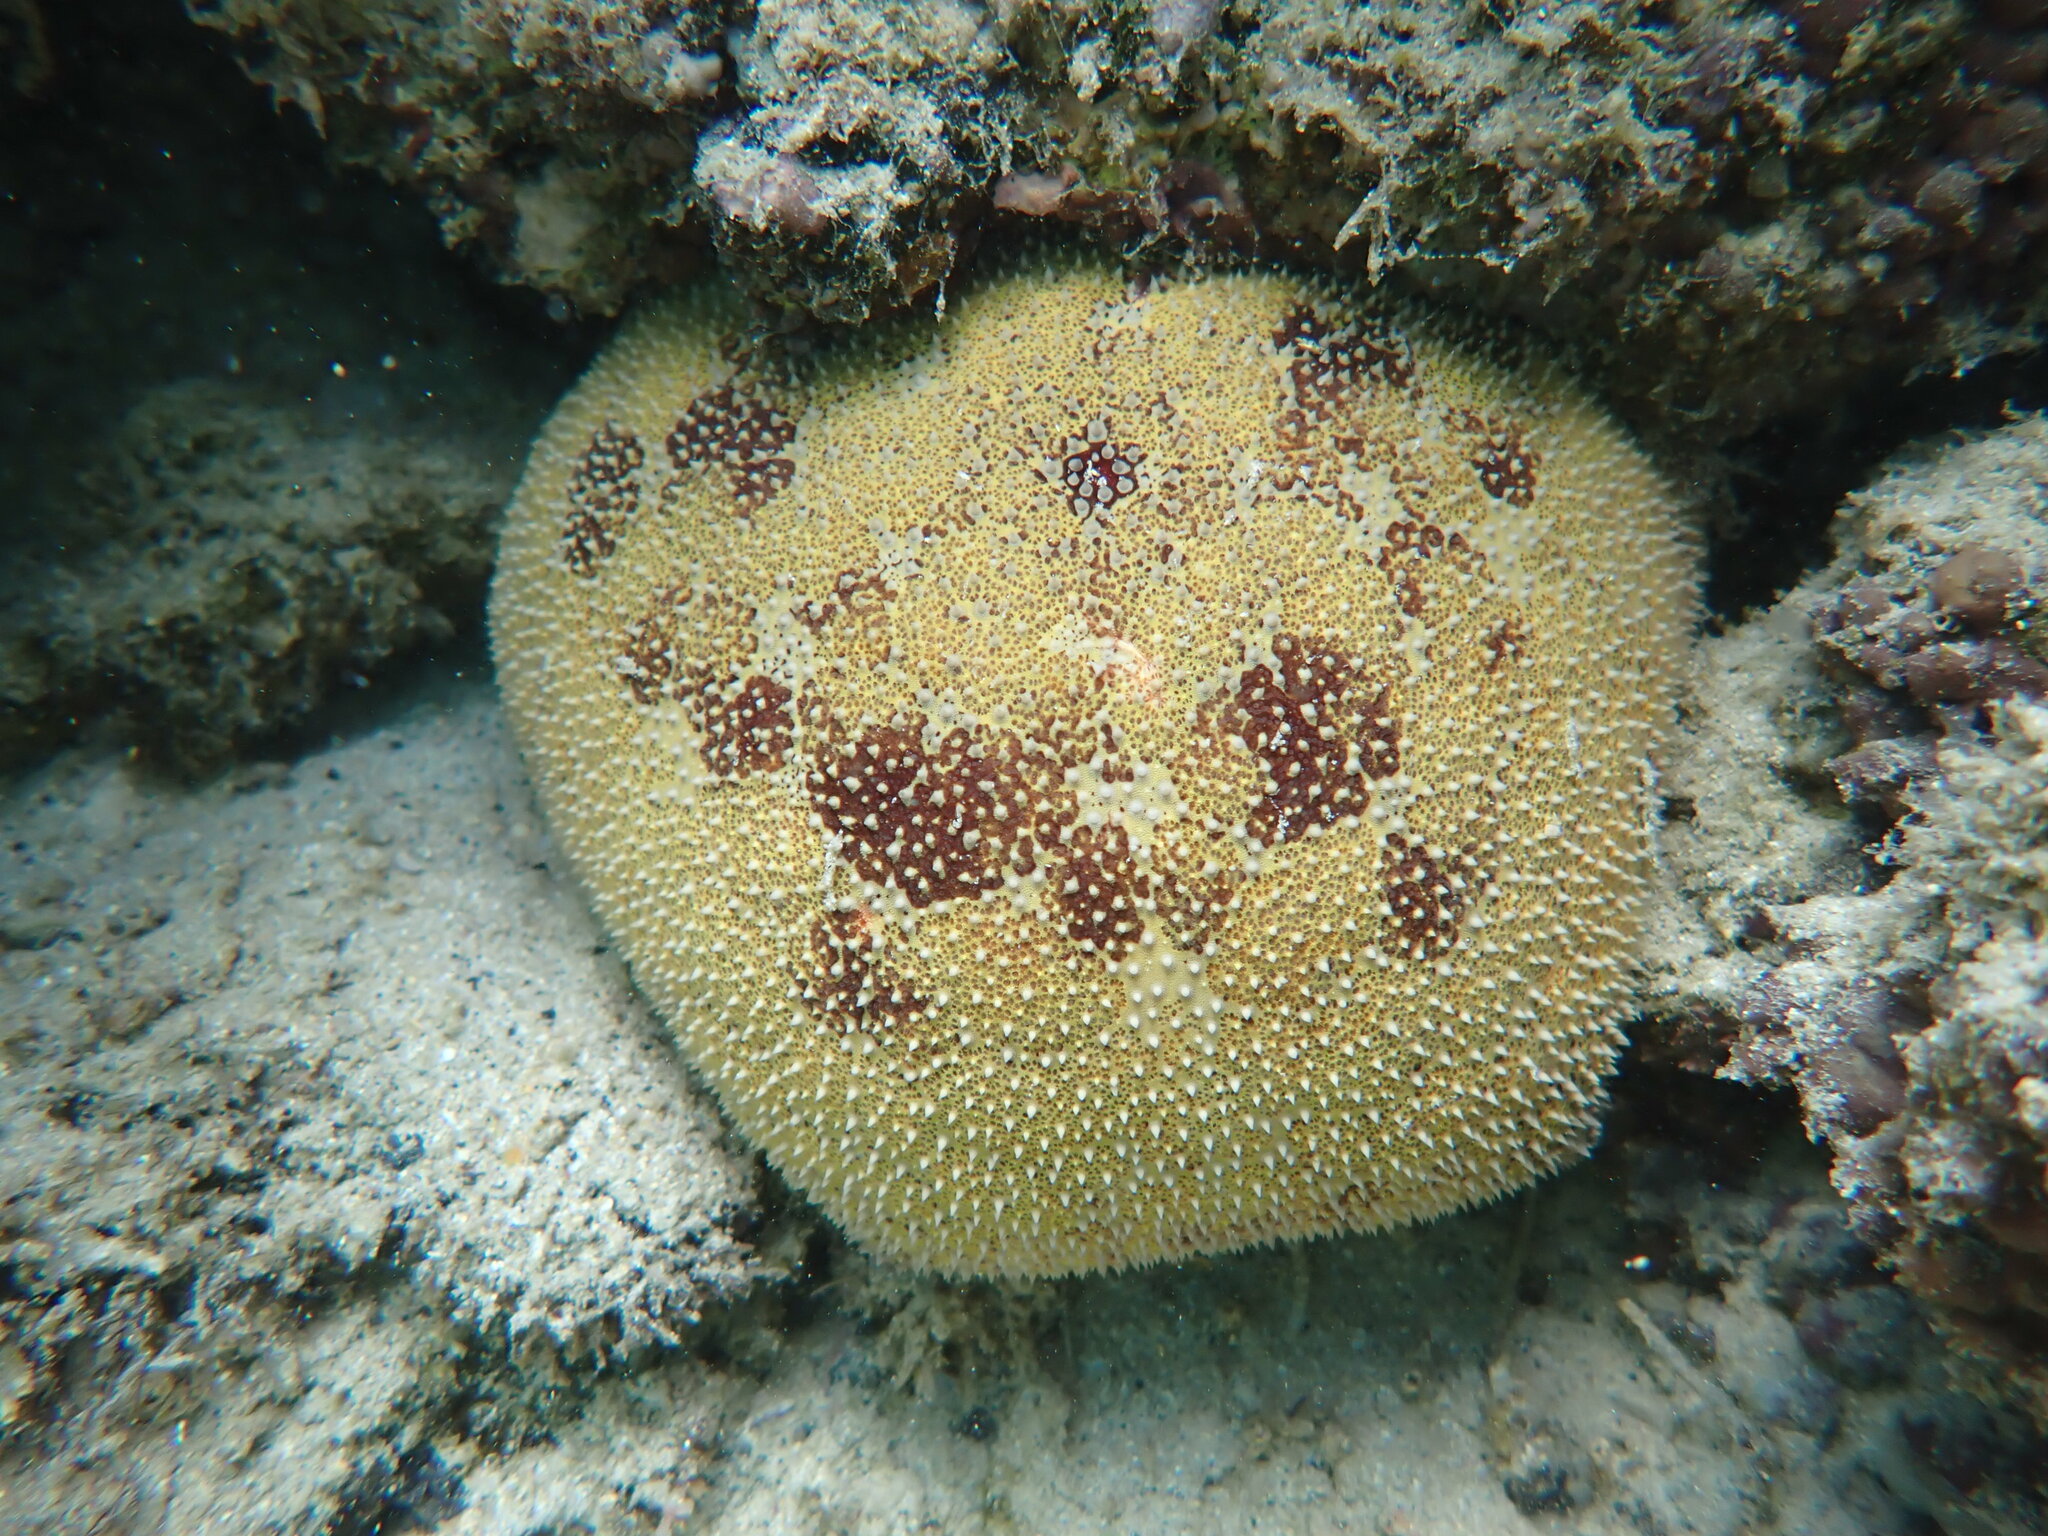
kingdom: Animalia
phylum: Echinodermata
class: Asteroidea
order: Valvatida
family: Oreasteridae
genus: Culcita
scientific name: Culcita novaeguineae
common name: Cushion star
